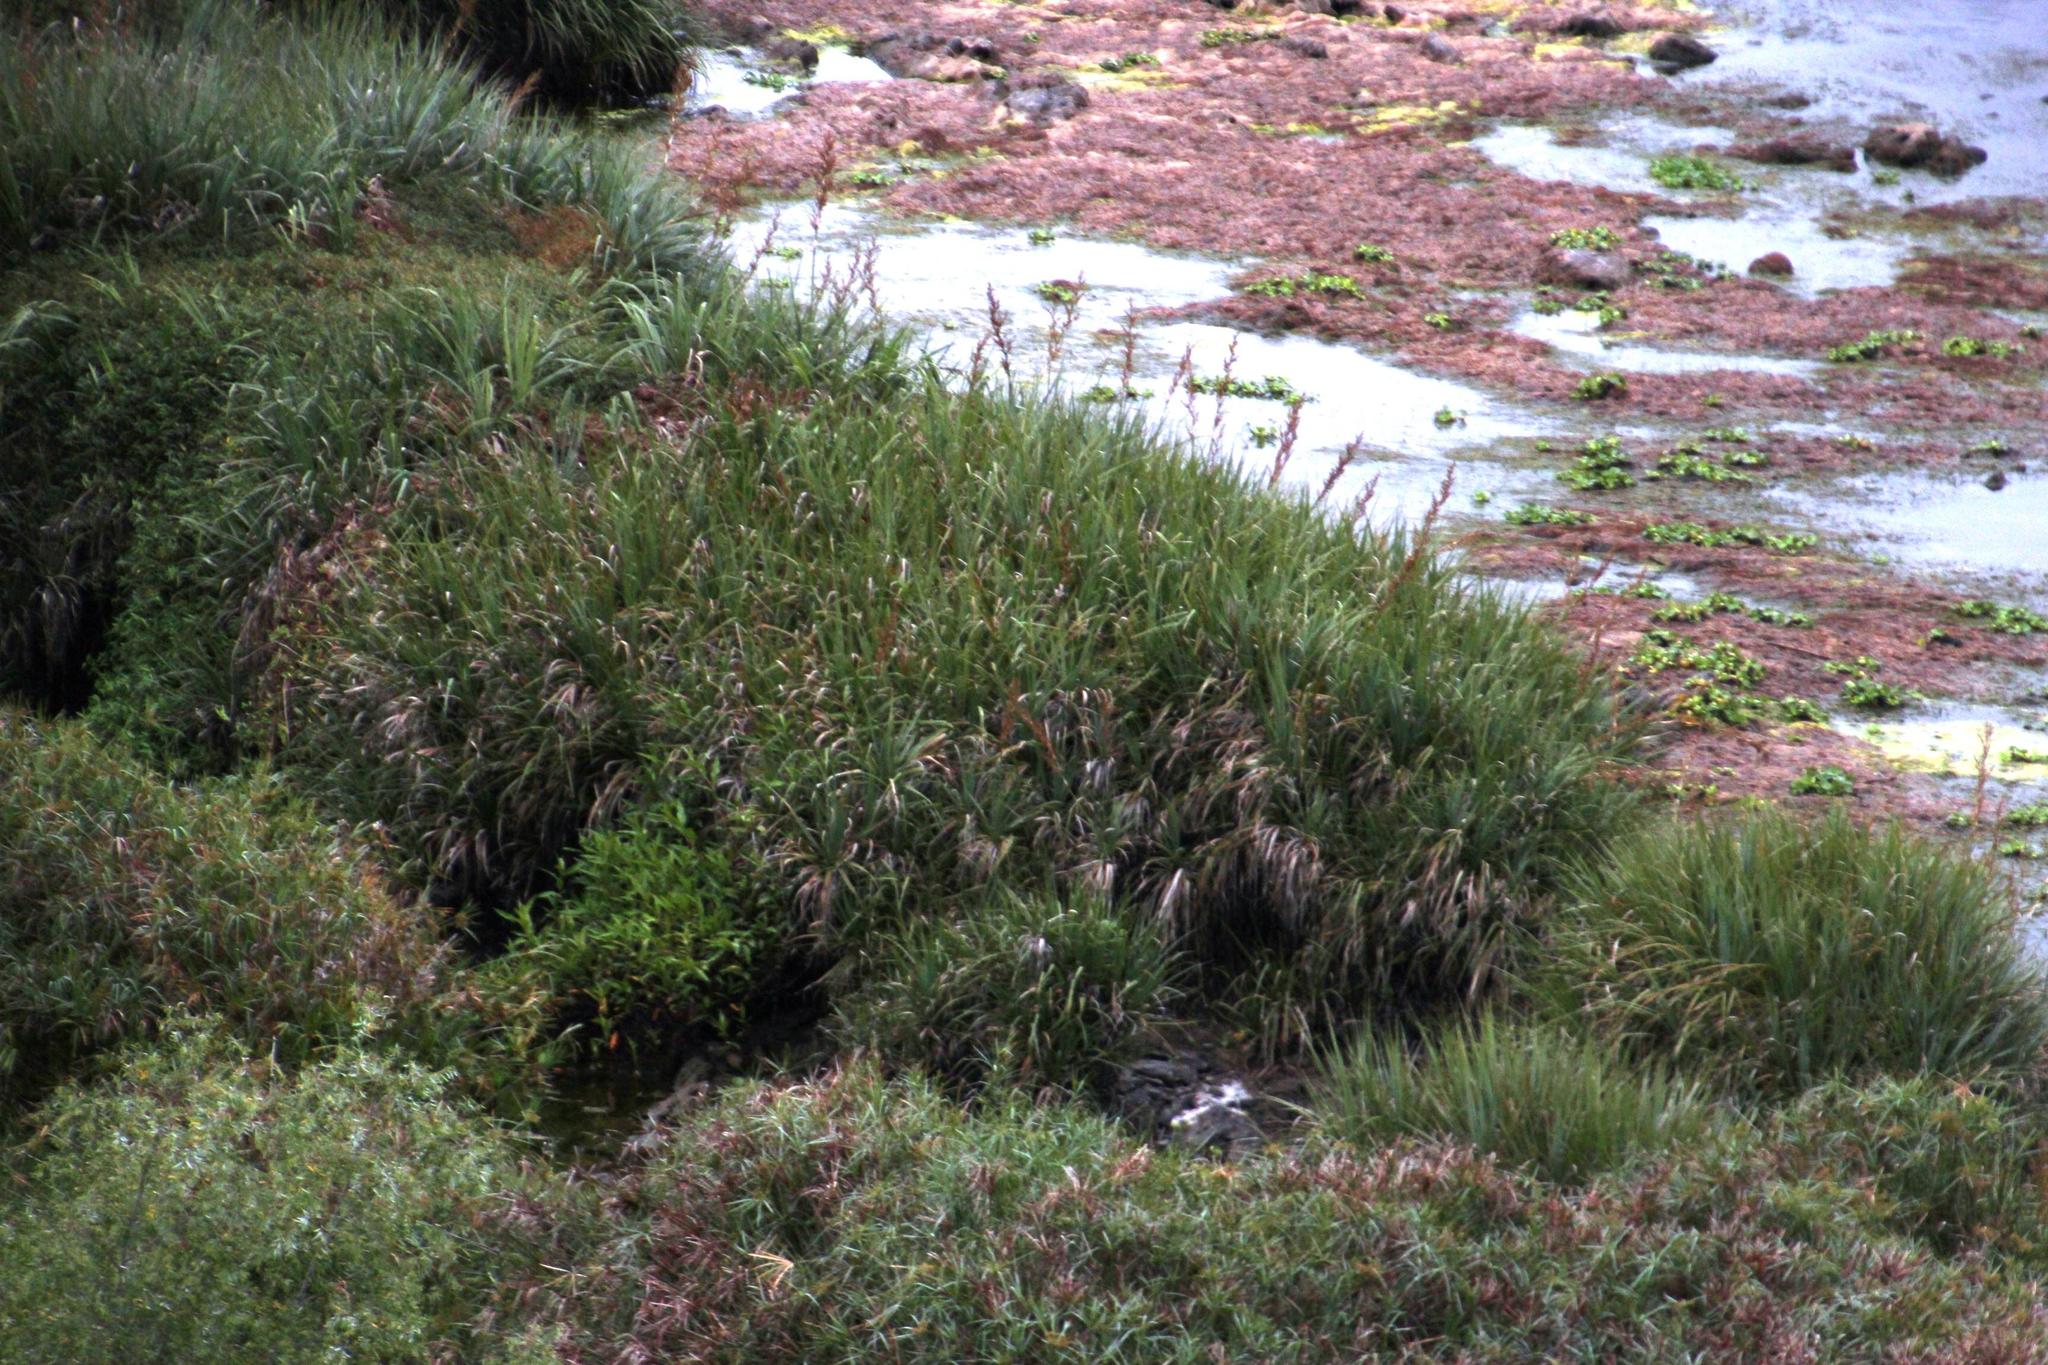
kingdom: Plantae
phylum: Tracheophyta
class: Liliopsida
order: Poales
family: Thurniaceae
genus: Prionium
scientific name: Prionium serratum
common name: Palmiet
